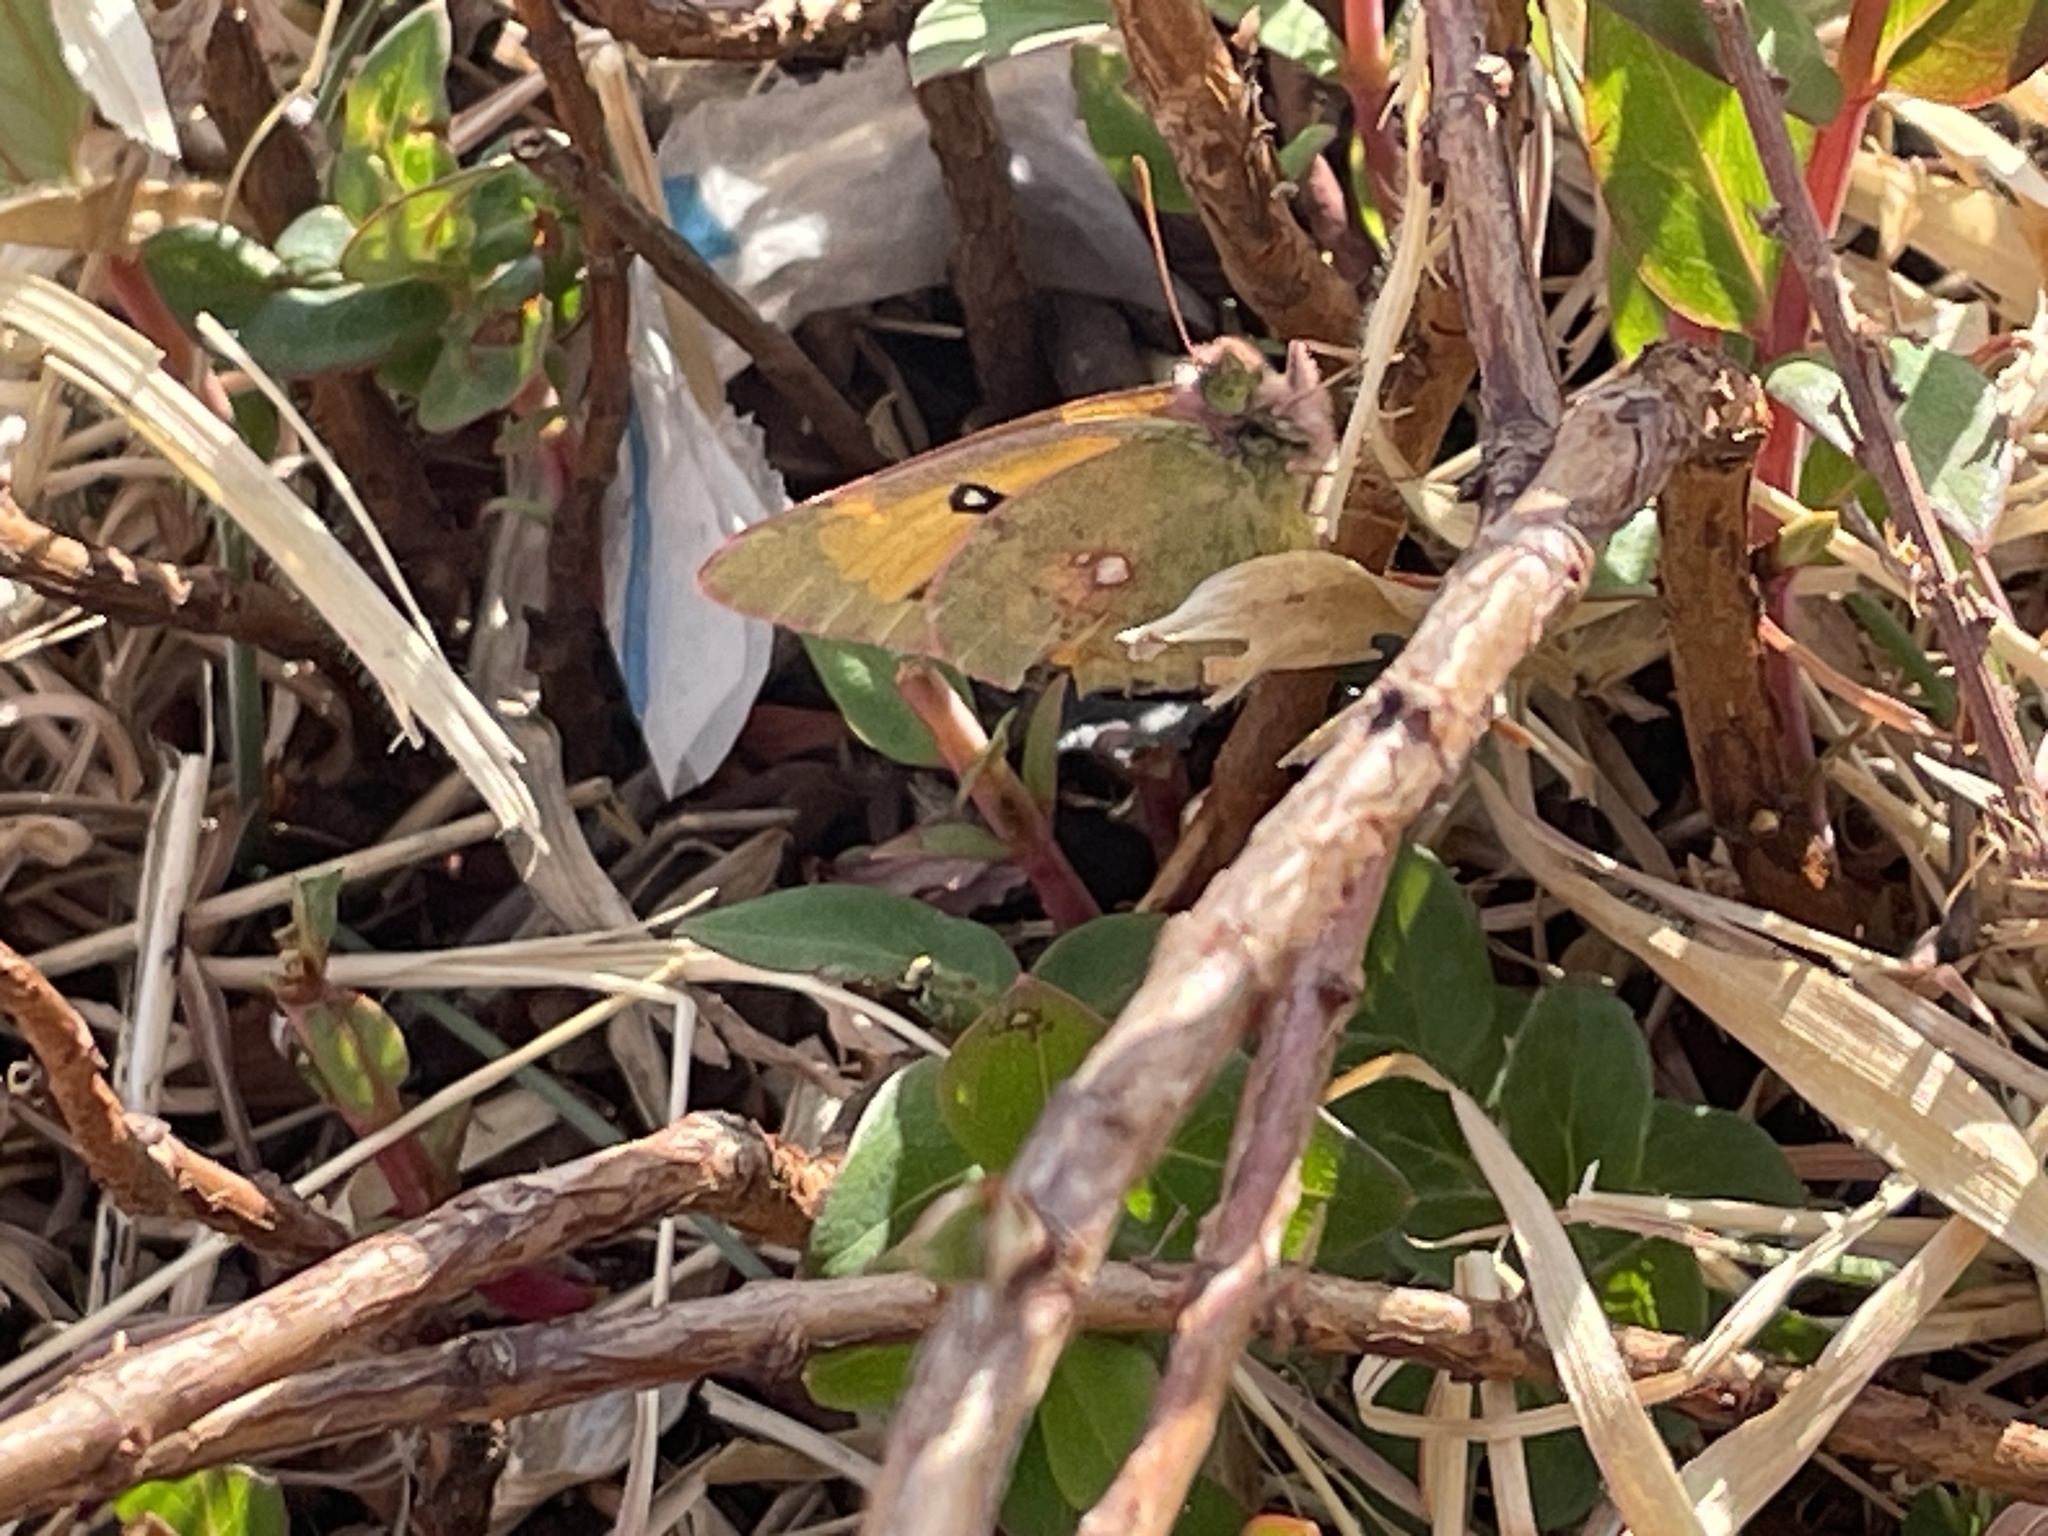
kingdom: Animalia
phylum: Arthropoda
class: Insecta
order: Lepidoptera
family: Pieridae
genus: Colias
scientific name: Colias fieldii
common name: Dark clouded yellow
